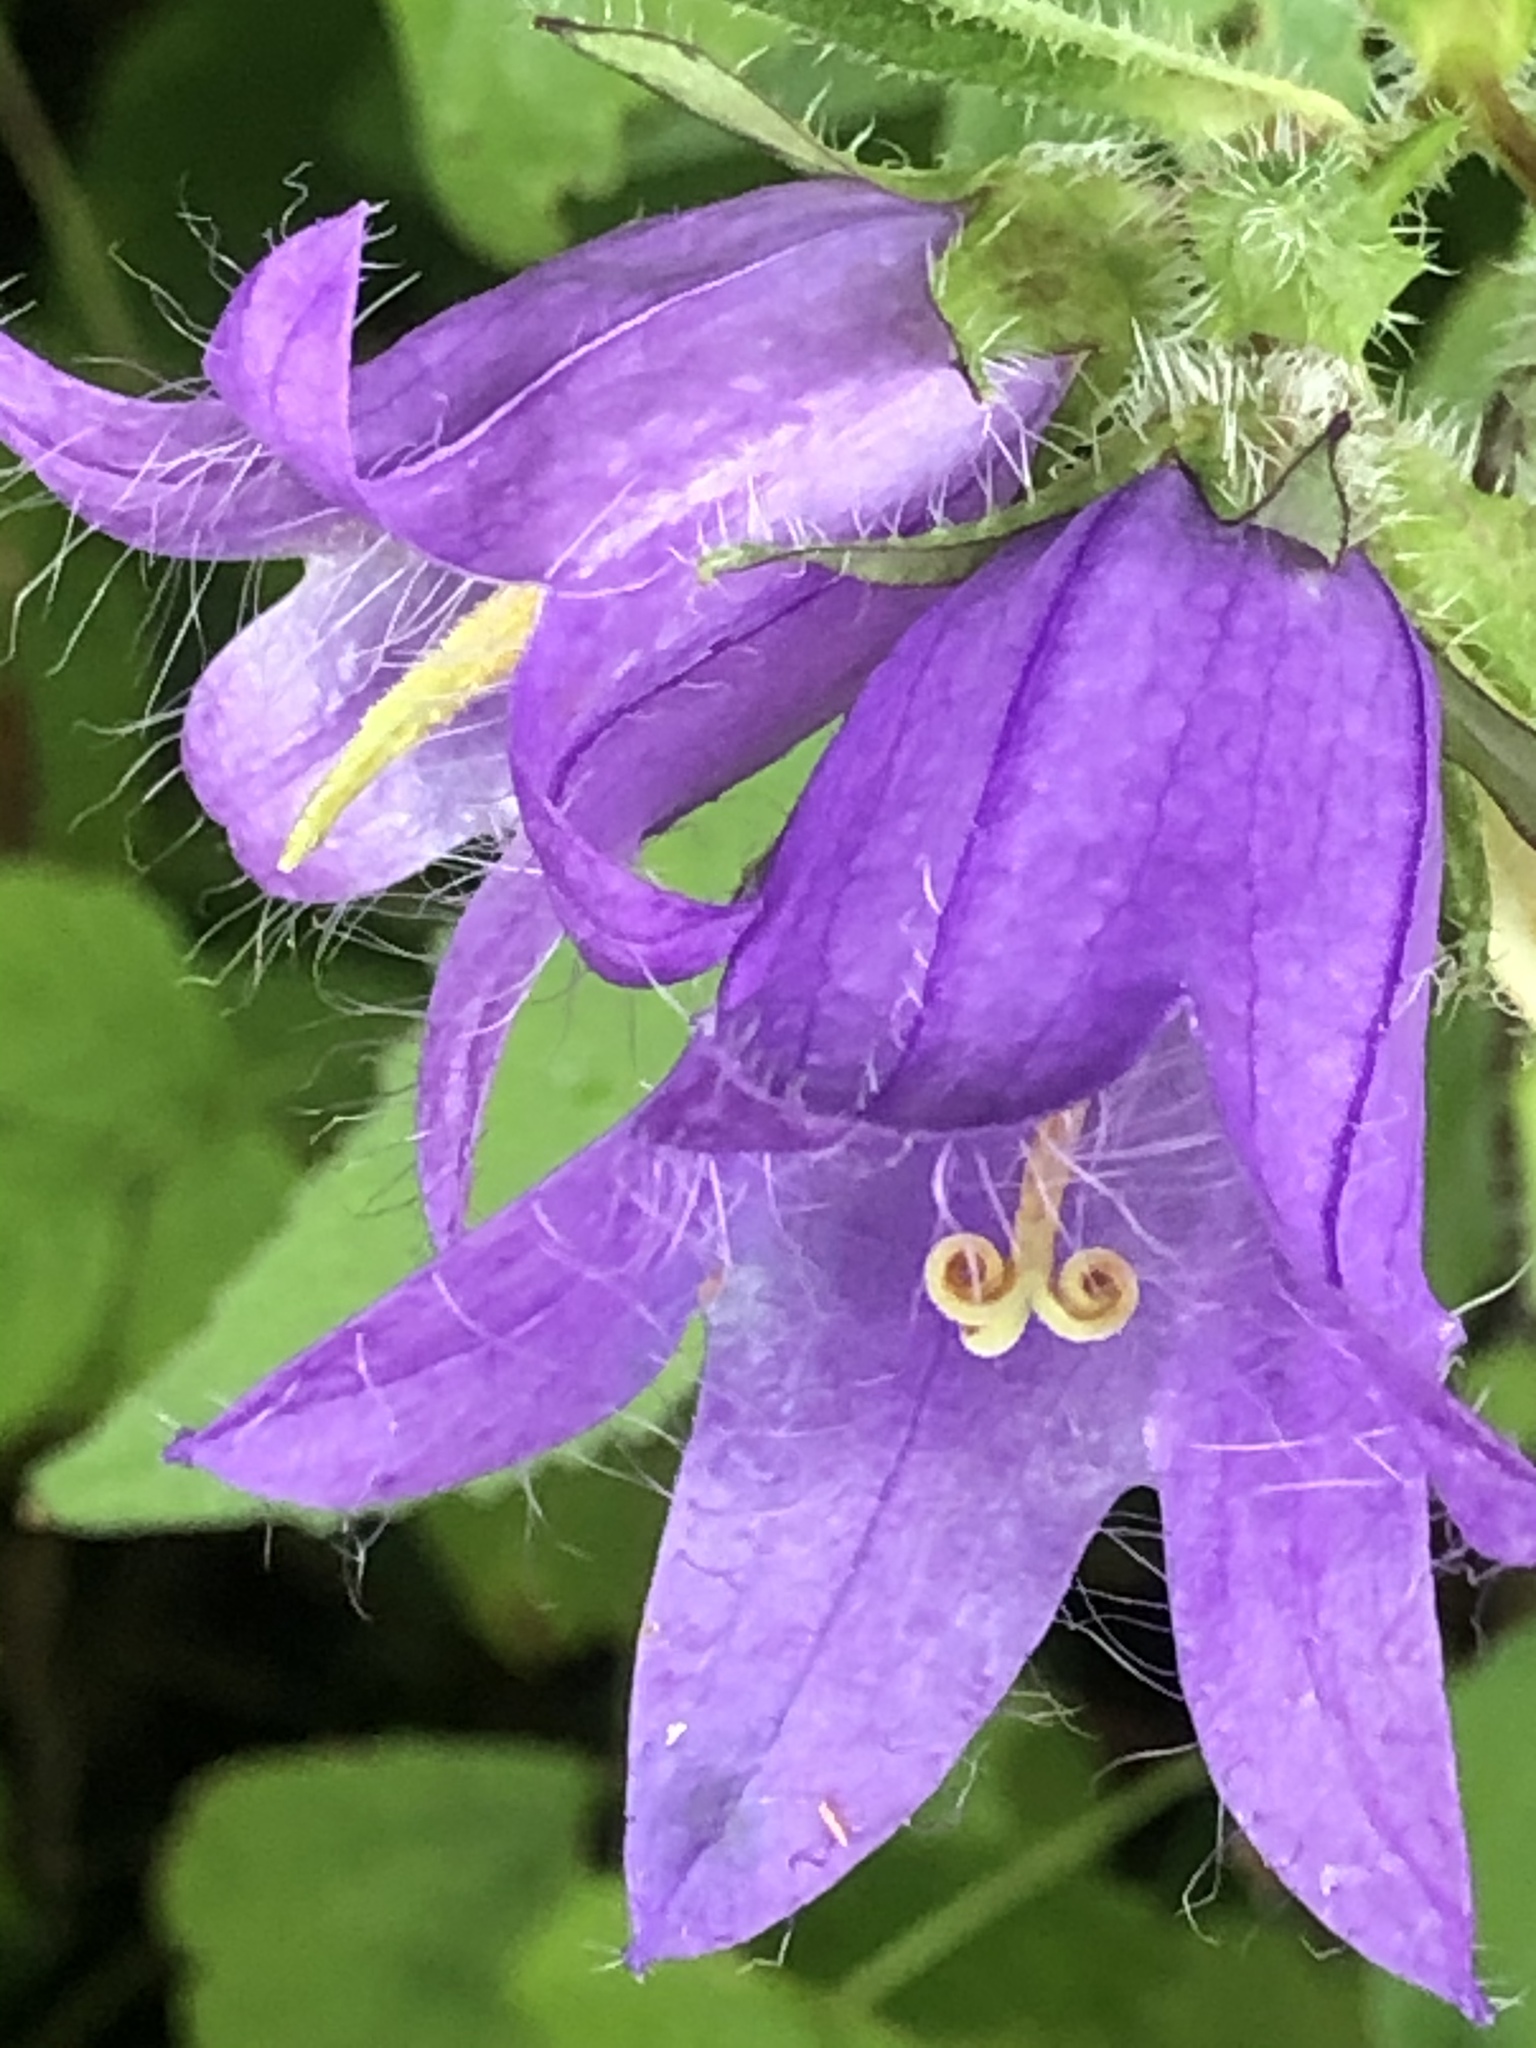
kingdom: Plantae
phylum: Tracheophyta
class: Magnoliopsida
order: Asterales
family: Campanulaceae
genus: Campanula
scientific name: Campanula trachelium
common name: Nettle-leaved bellflower
